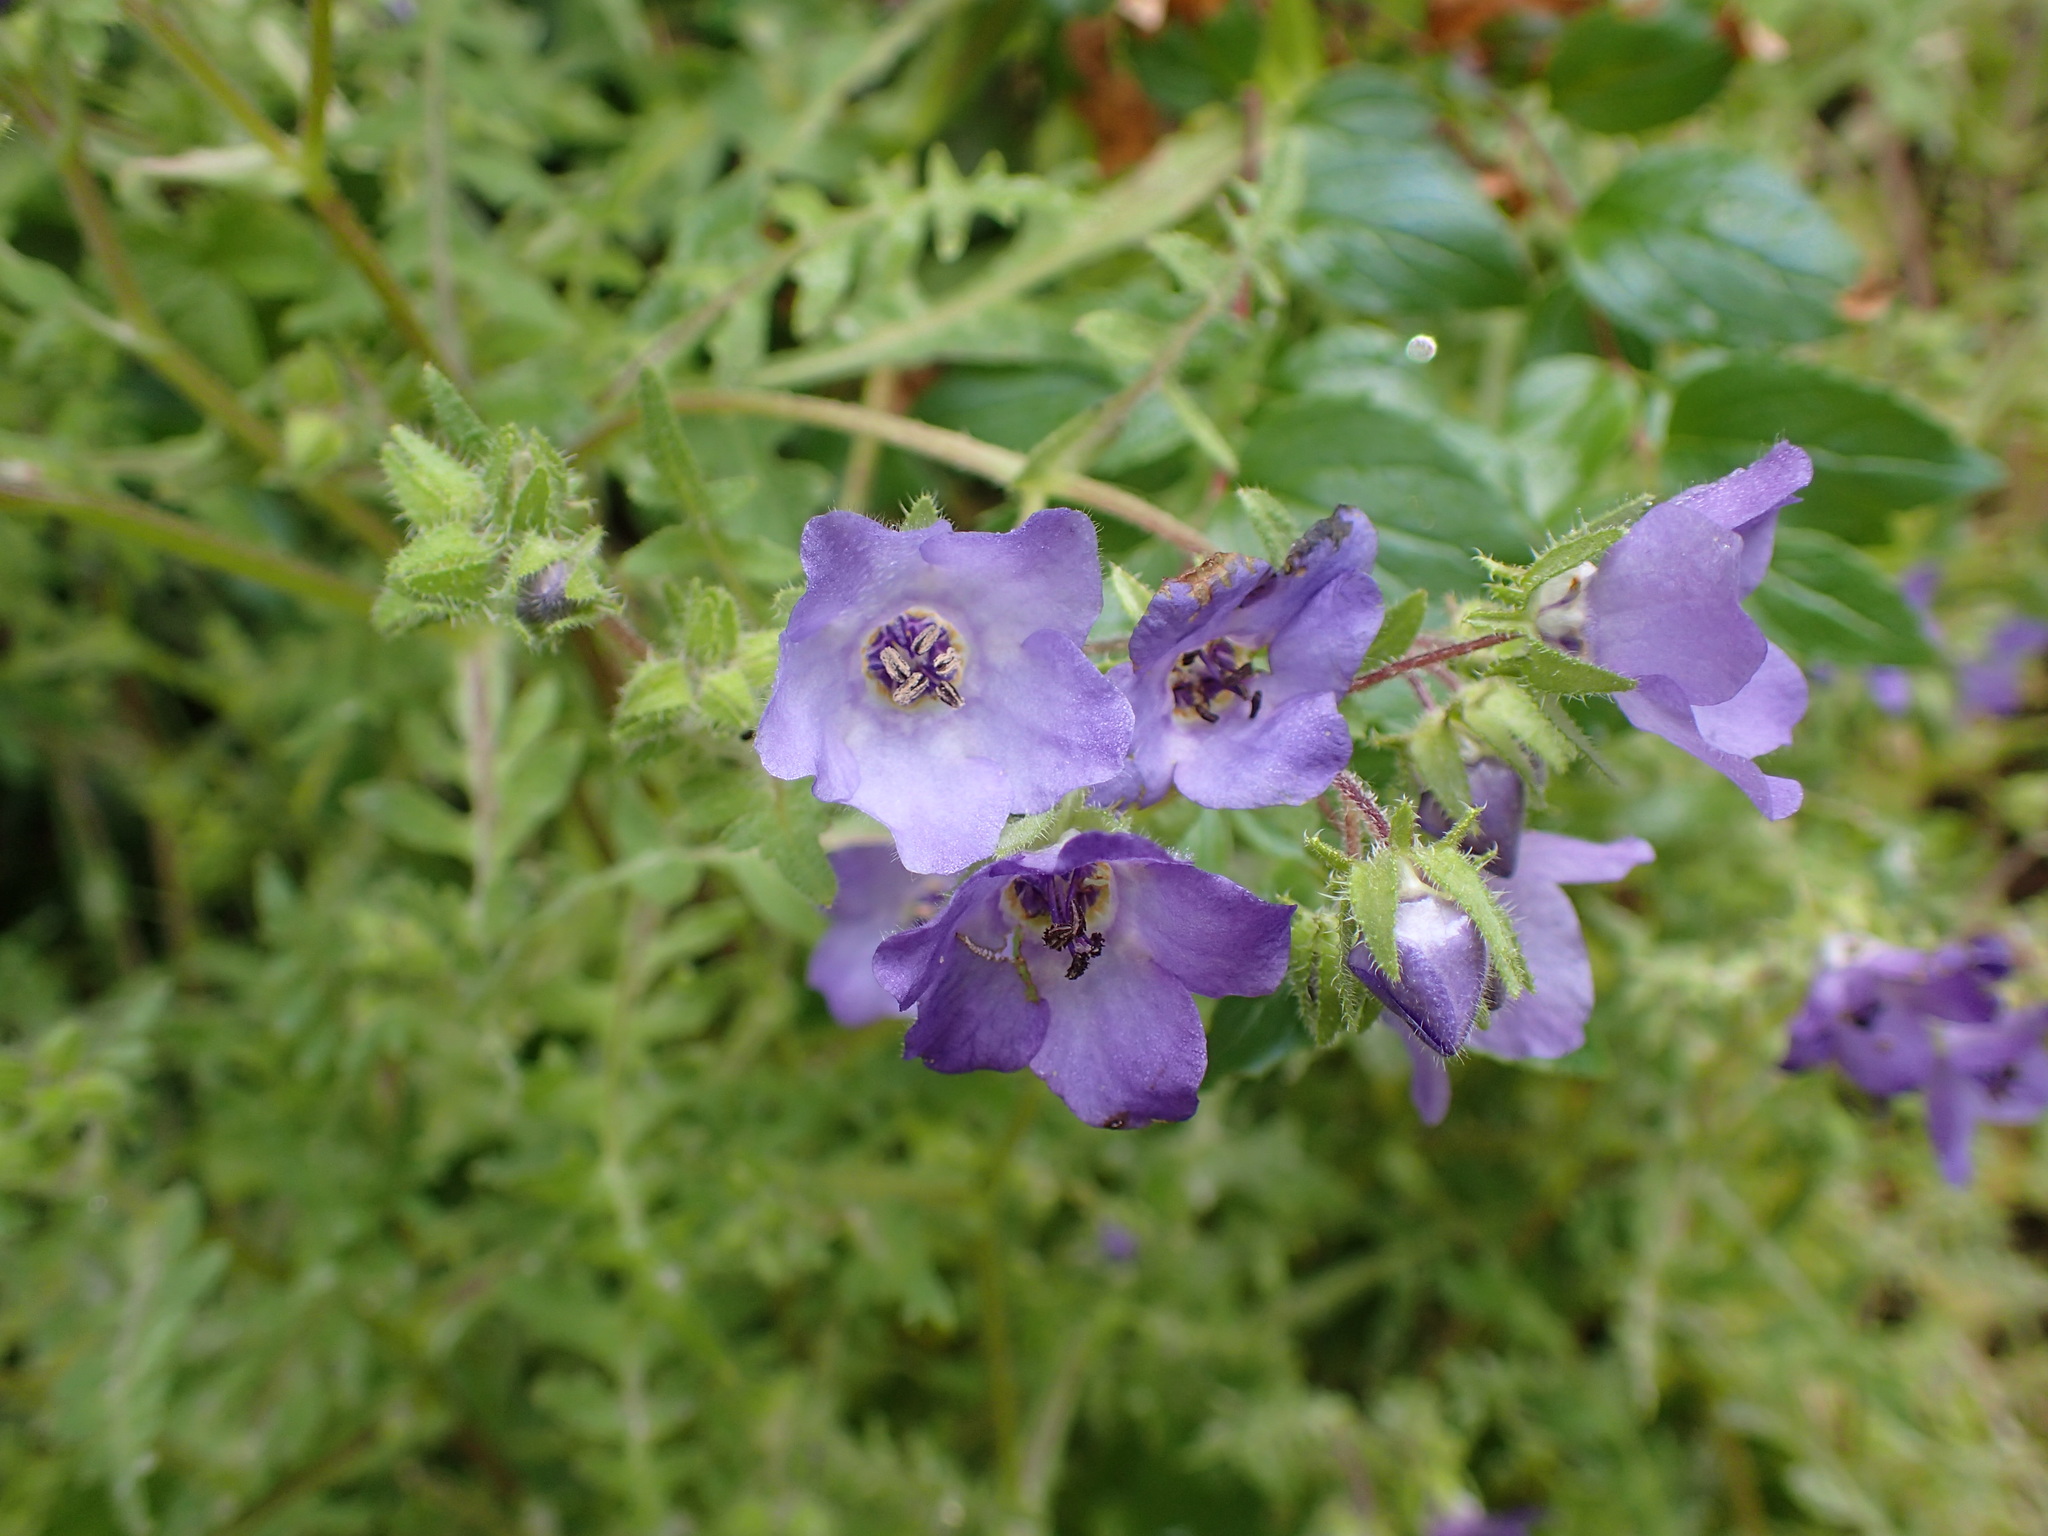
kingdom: Plantae
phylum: Tracheophyta
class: Magnoliopsida
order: Boraginales
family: Hydrophyllaceae
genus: Pholistoma
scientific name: Pholistoma auritum
